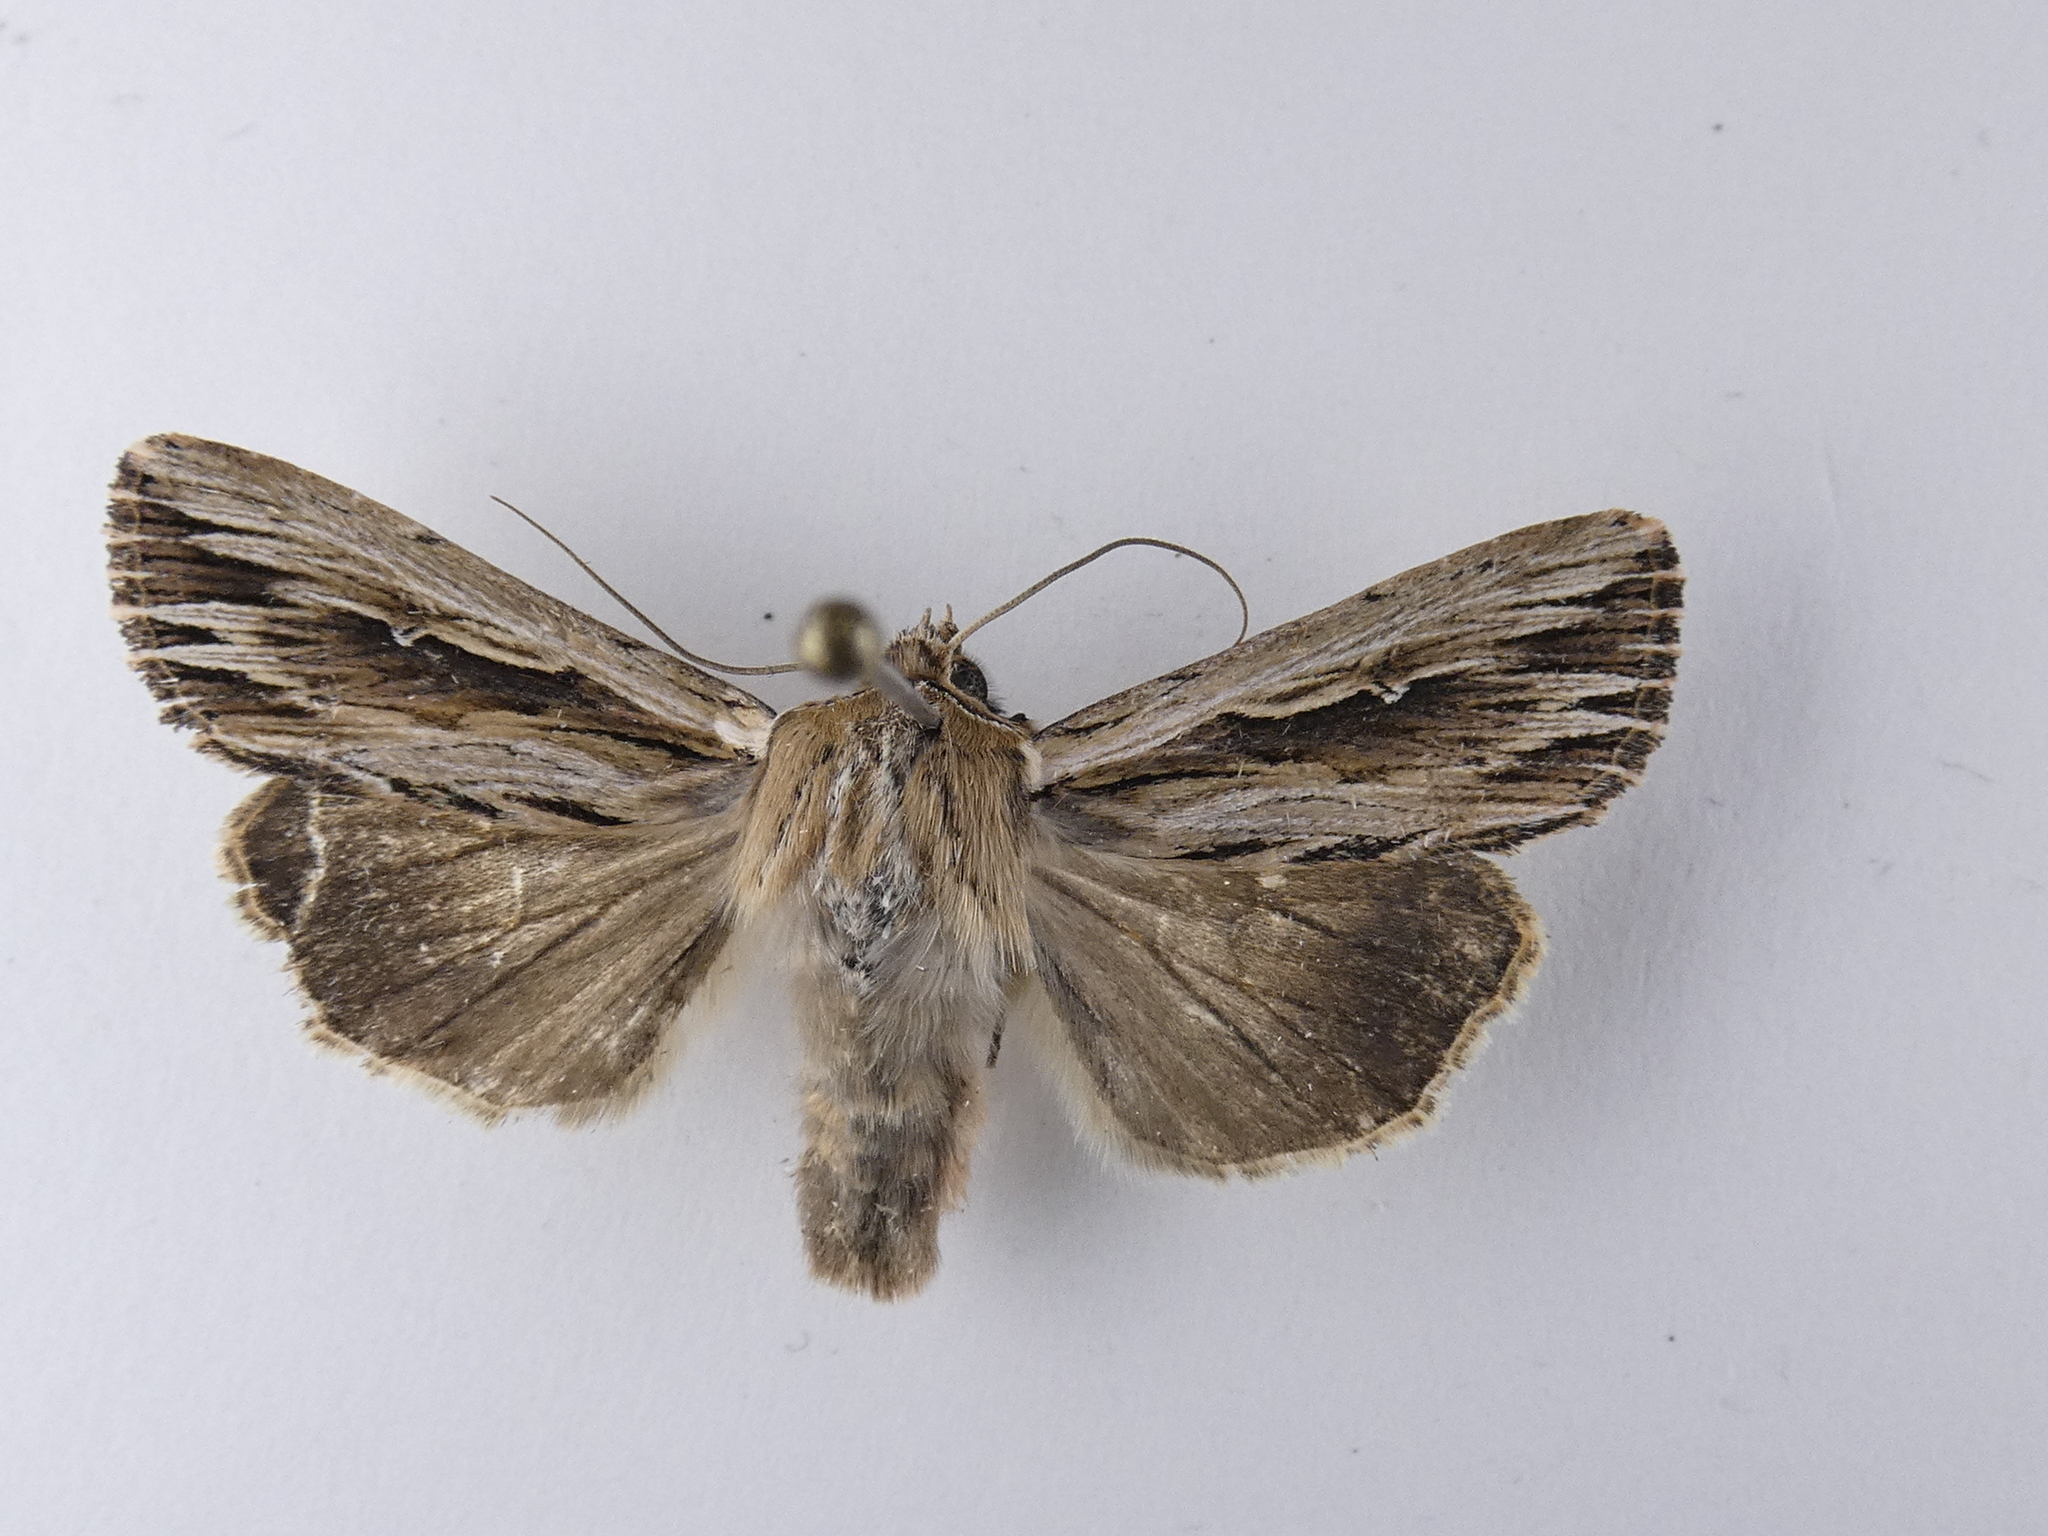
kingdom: Animalia
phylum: Arthropoda
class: Insecta
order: Lepidoptera
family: Noctuidae
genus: Persectania
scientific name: Persectania aversa
